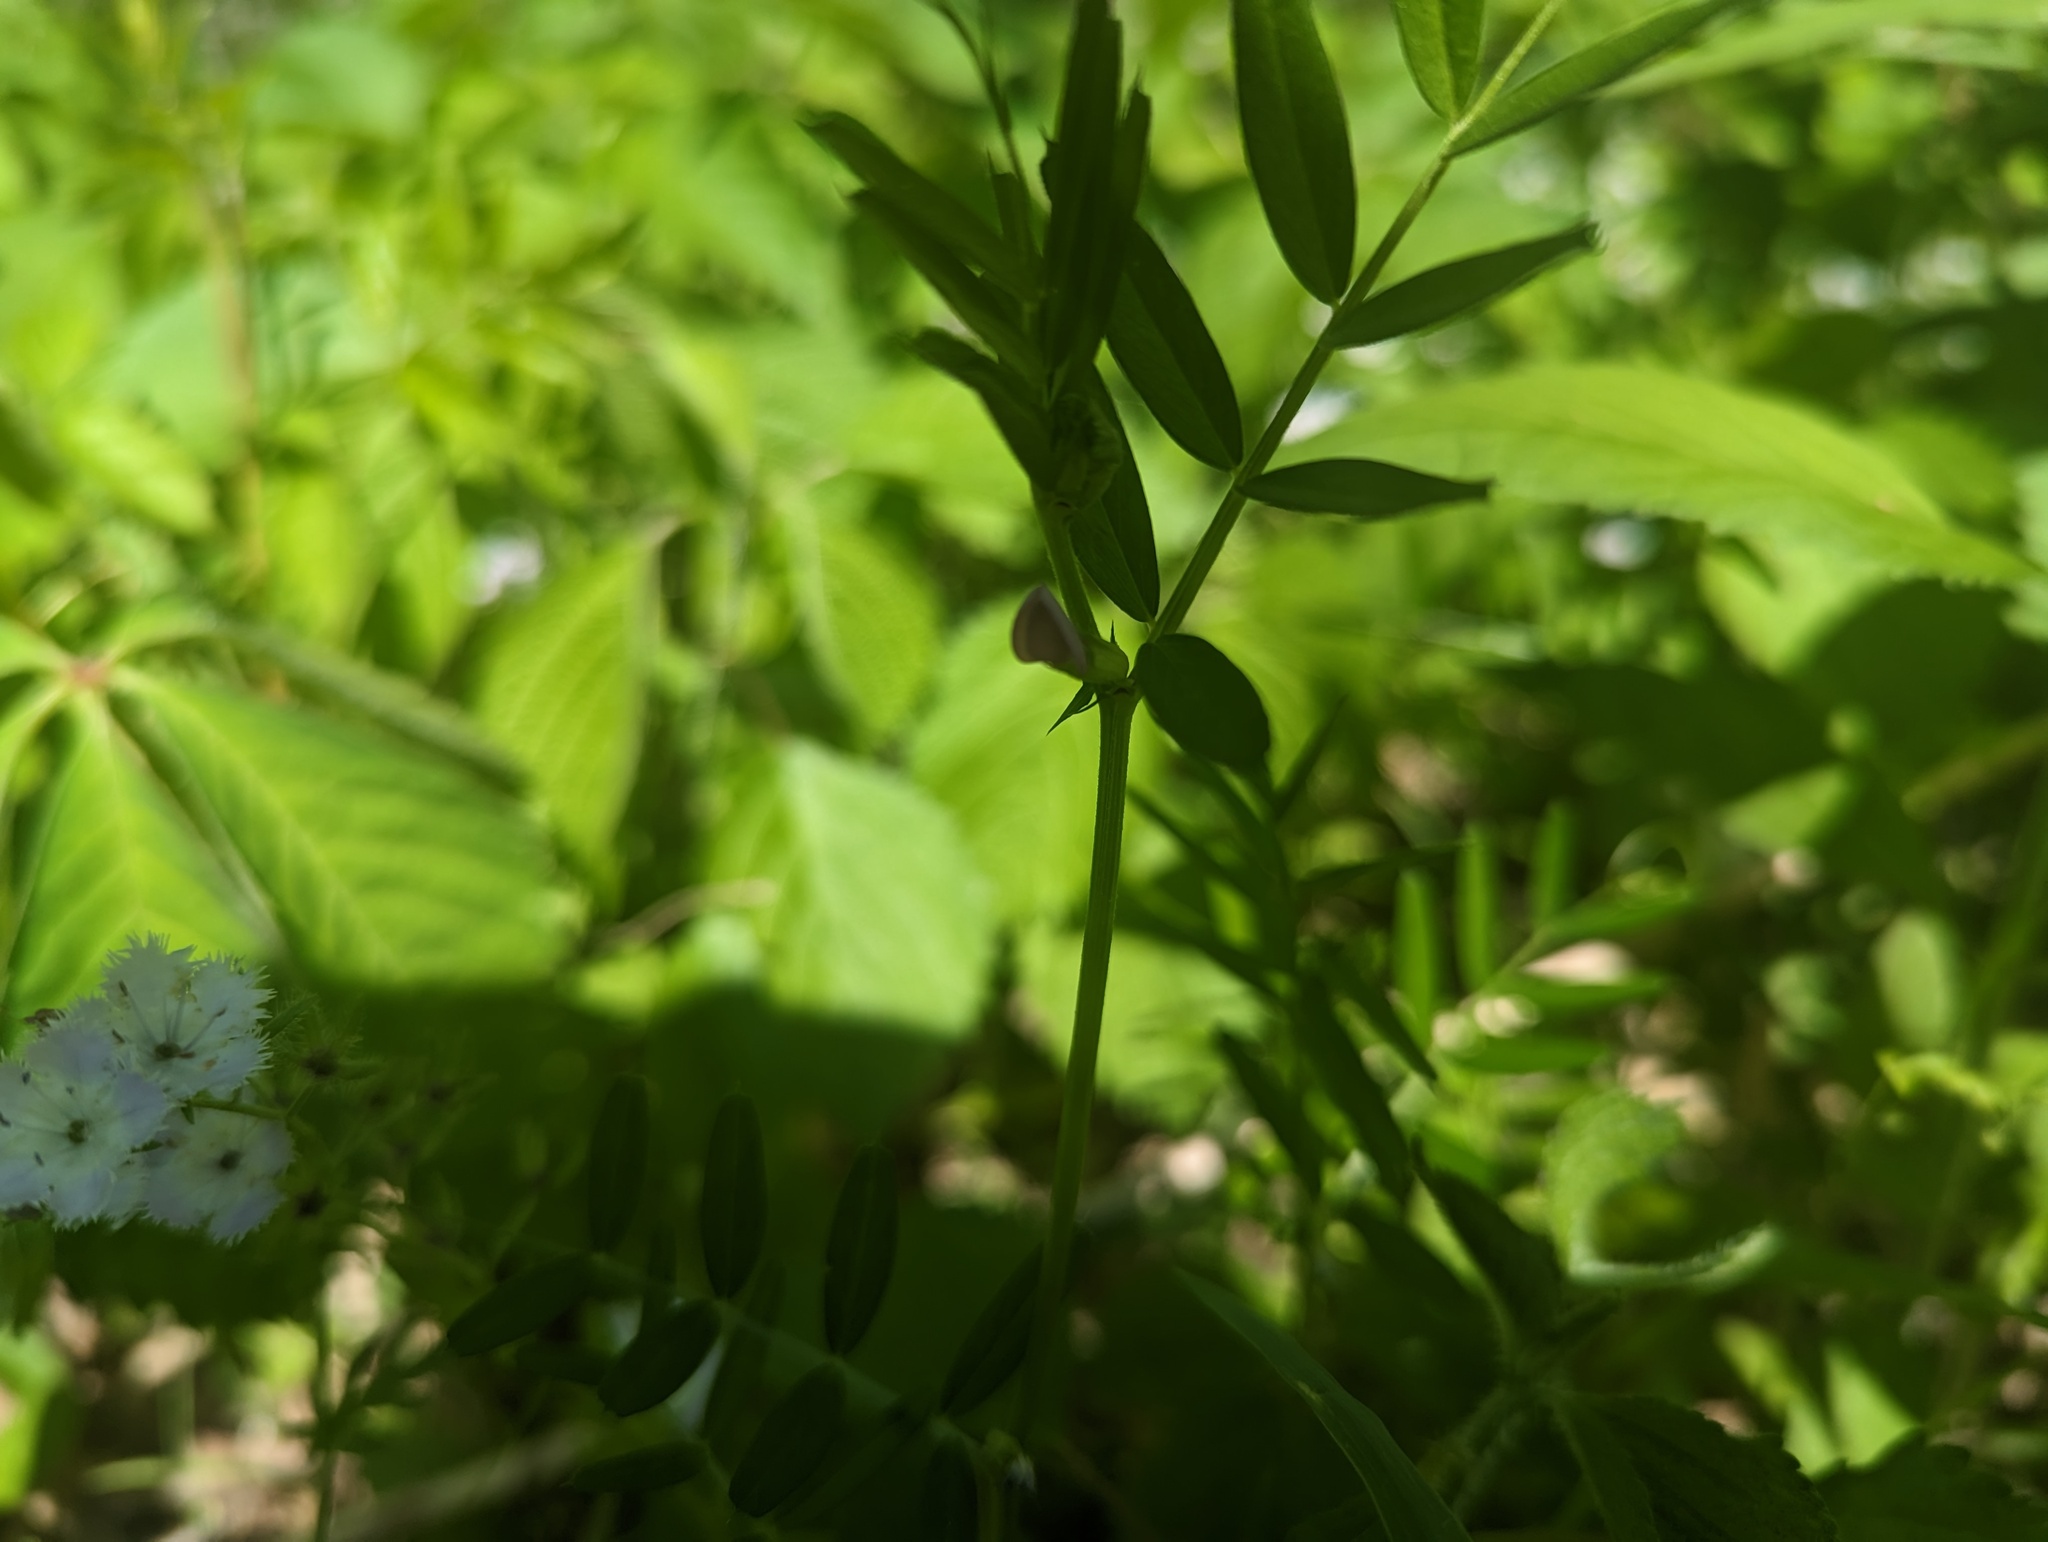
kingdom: Plantae
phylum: Tracheophyta
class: Magnoliopsida
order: Fabales
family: Fabaceae
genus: Vicia
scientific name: Vicia sativa
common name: Garden vetch
